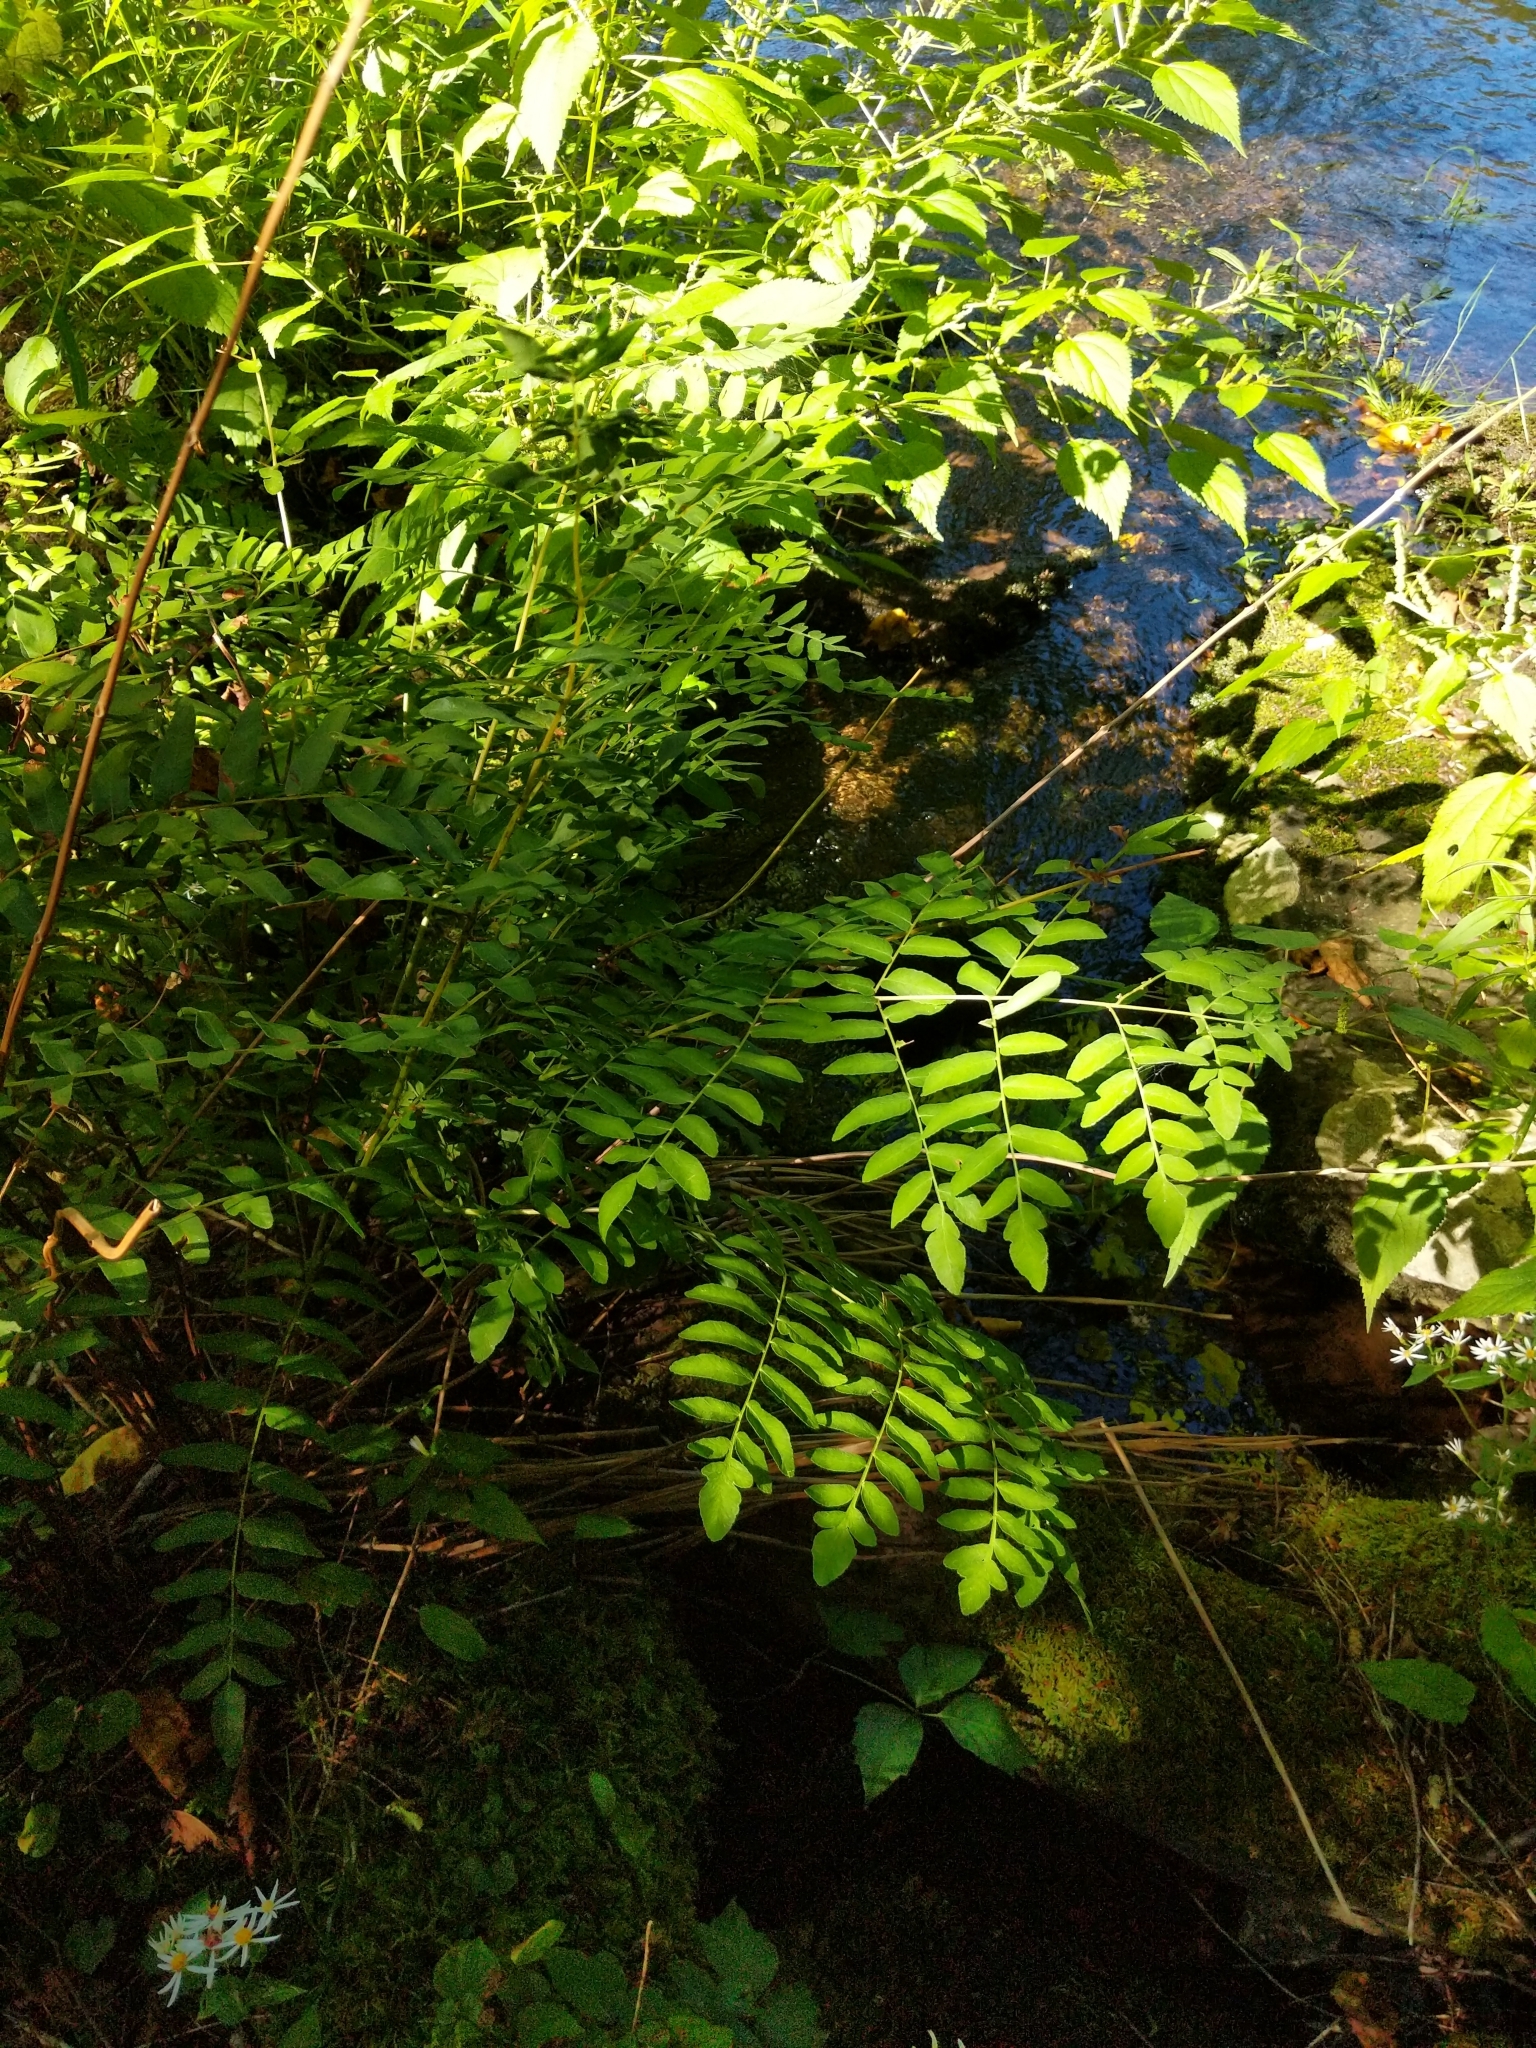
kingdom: Plantae
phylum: Tracheophyta
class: Polypodiopsida
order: Osmundales
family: Osmundaceae
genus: Osmunda
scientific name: Osmunda spectabilis
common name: American royal fern
